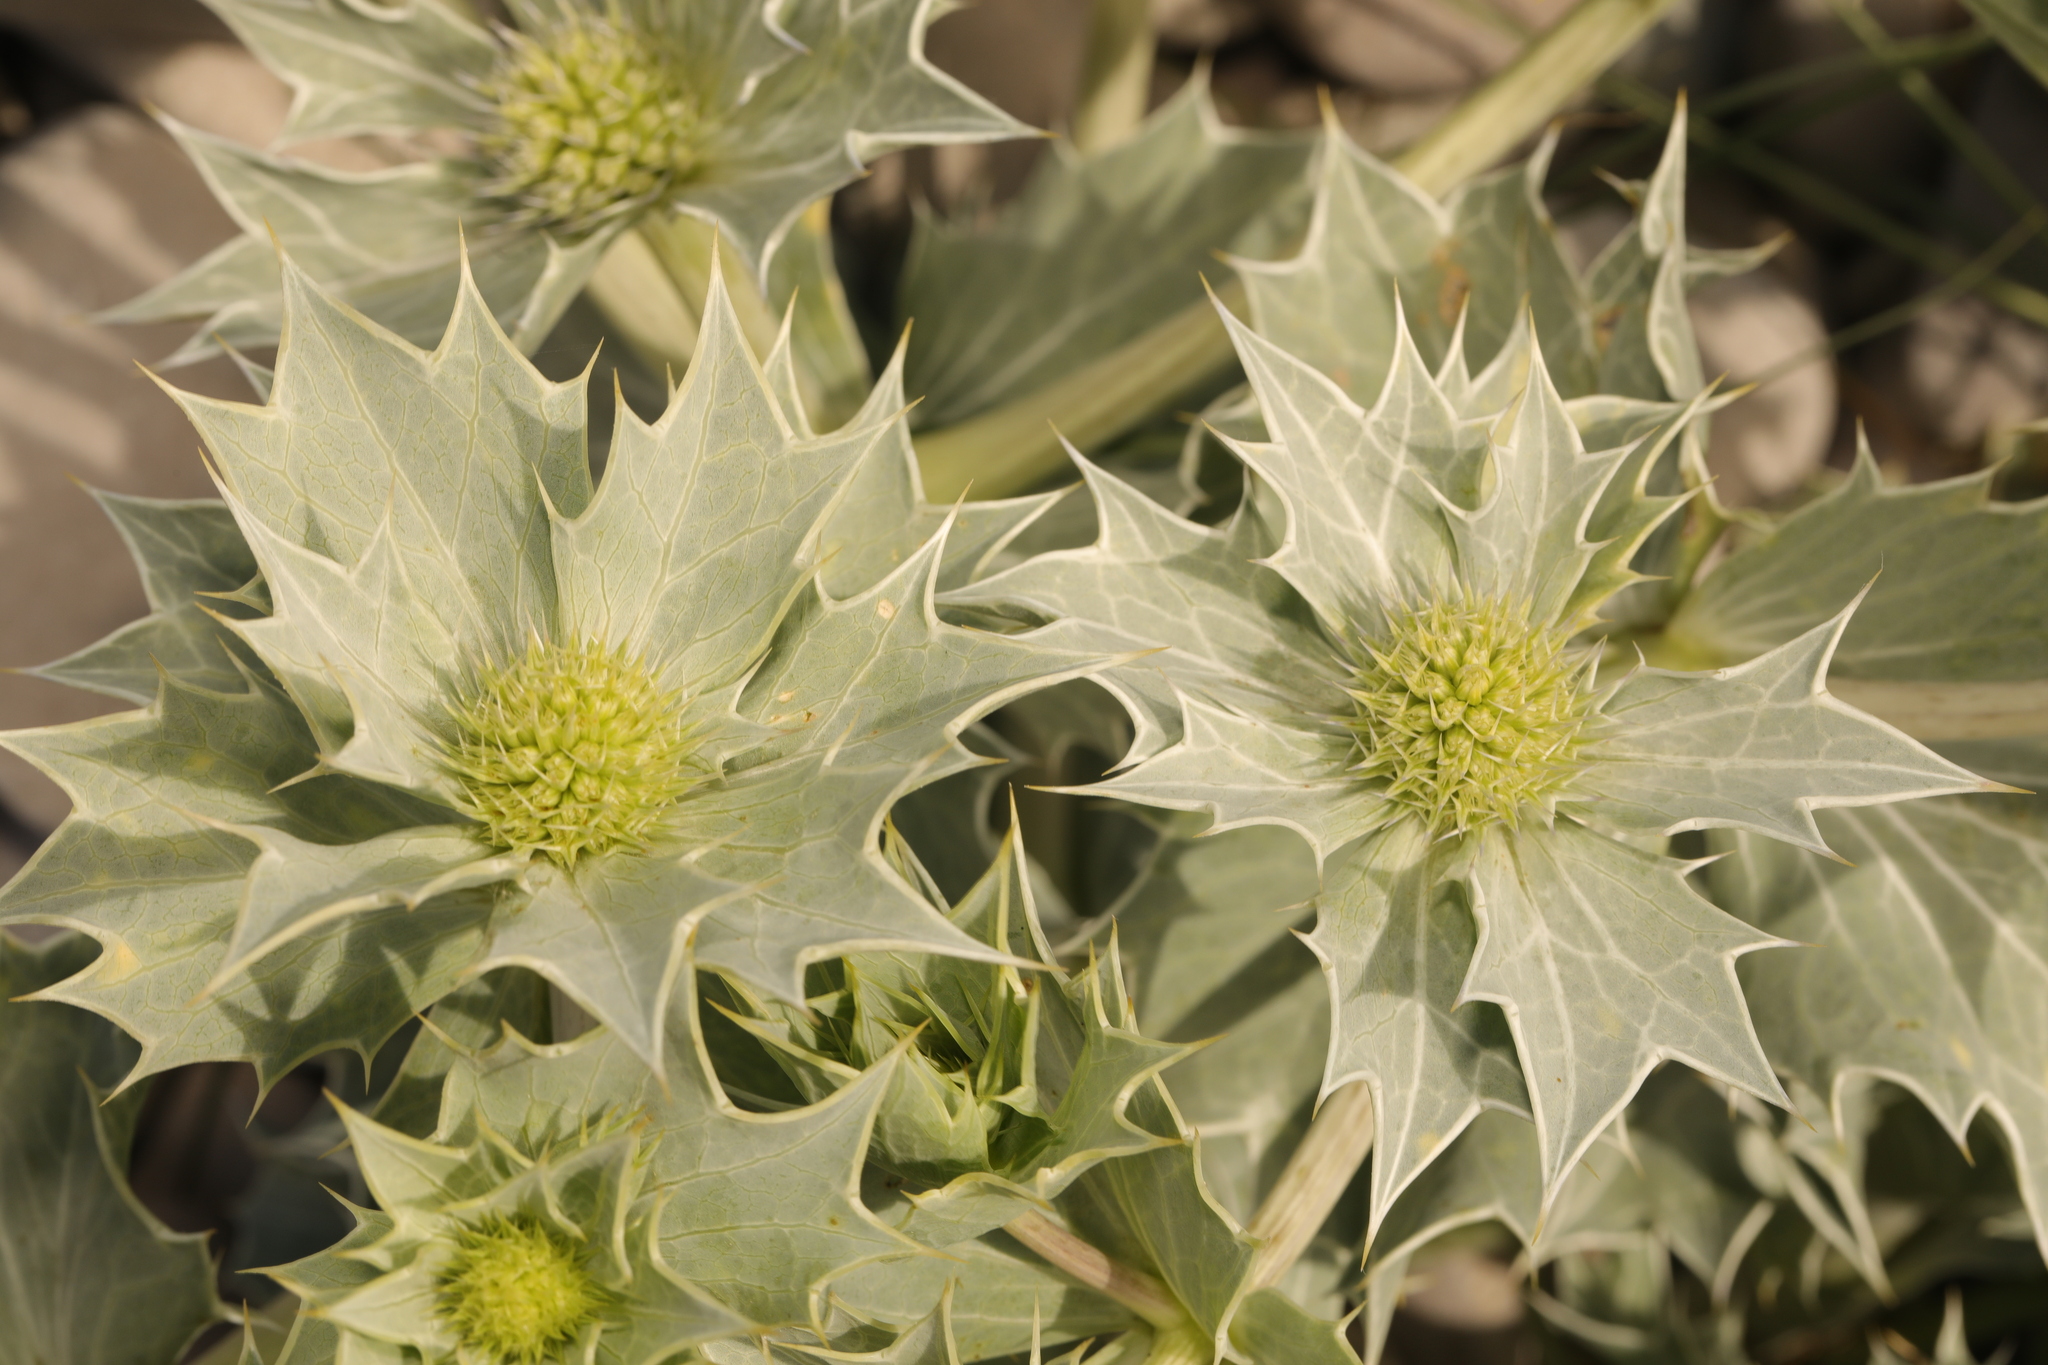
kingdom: Plantae
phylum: Tracheophyta
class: Magnoliopsida
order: Apiales
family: Apiaceae
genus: Eryngium
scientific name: Eryngium maritimum
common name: Sea-holly
